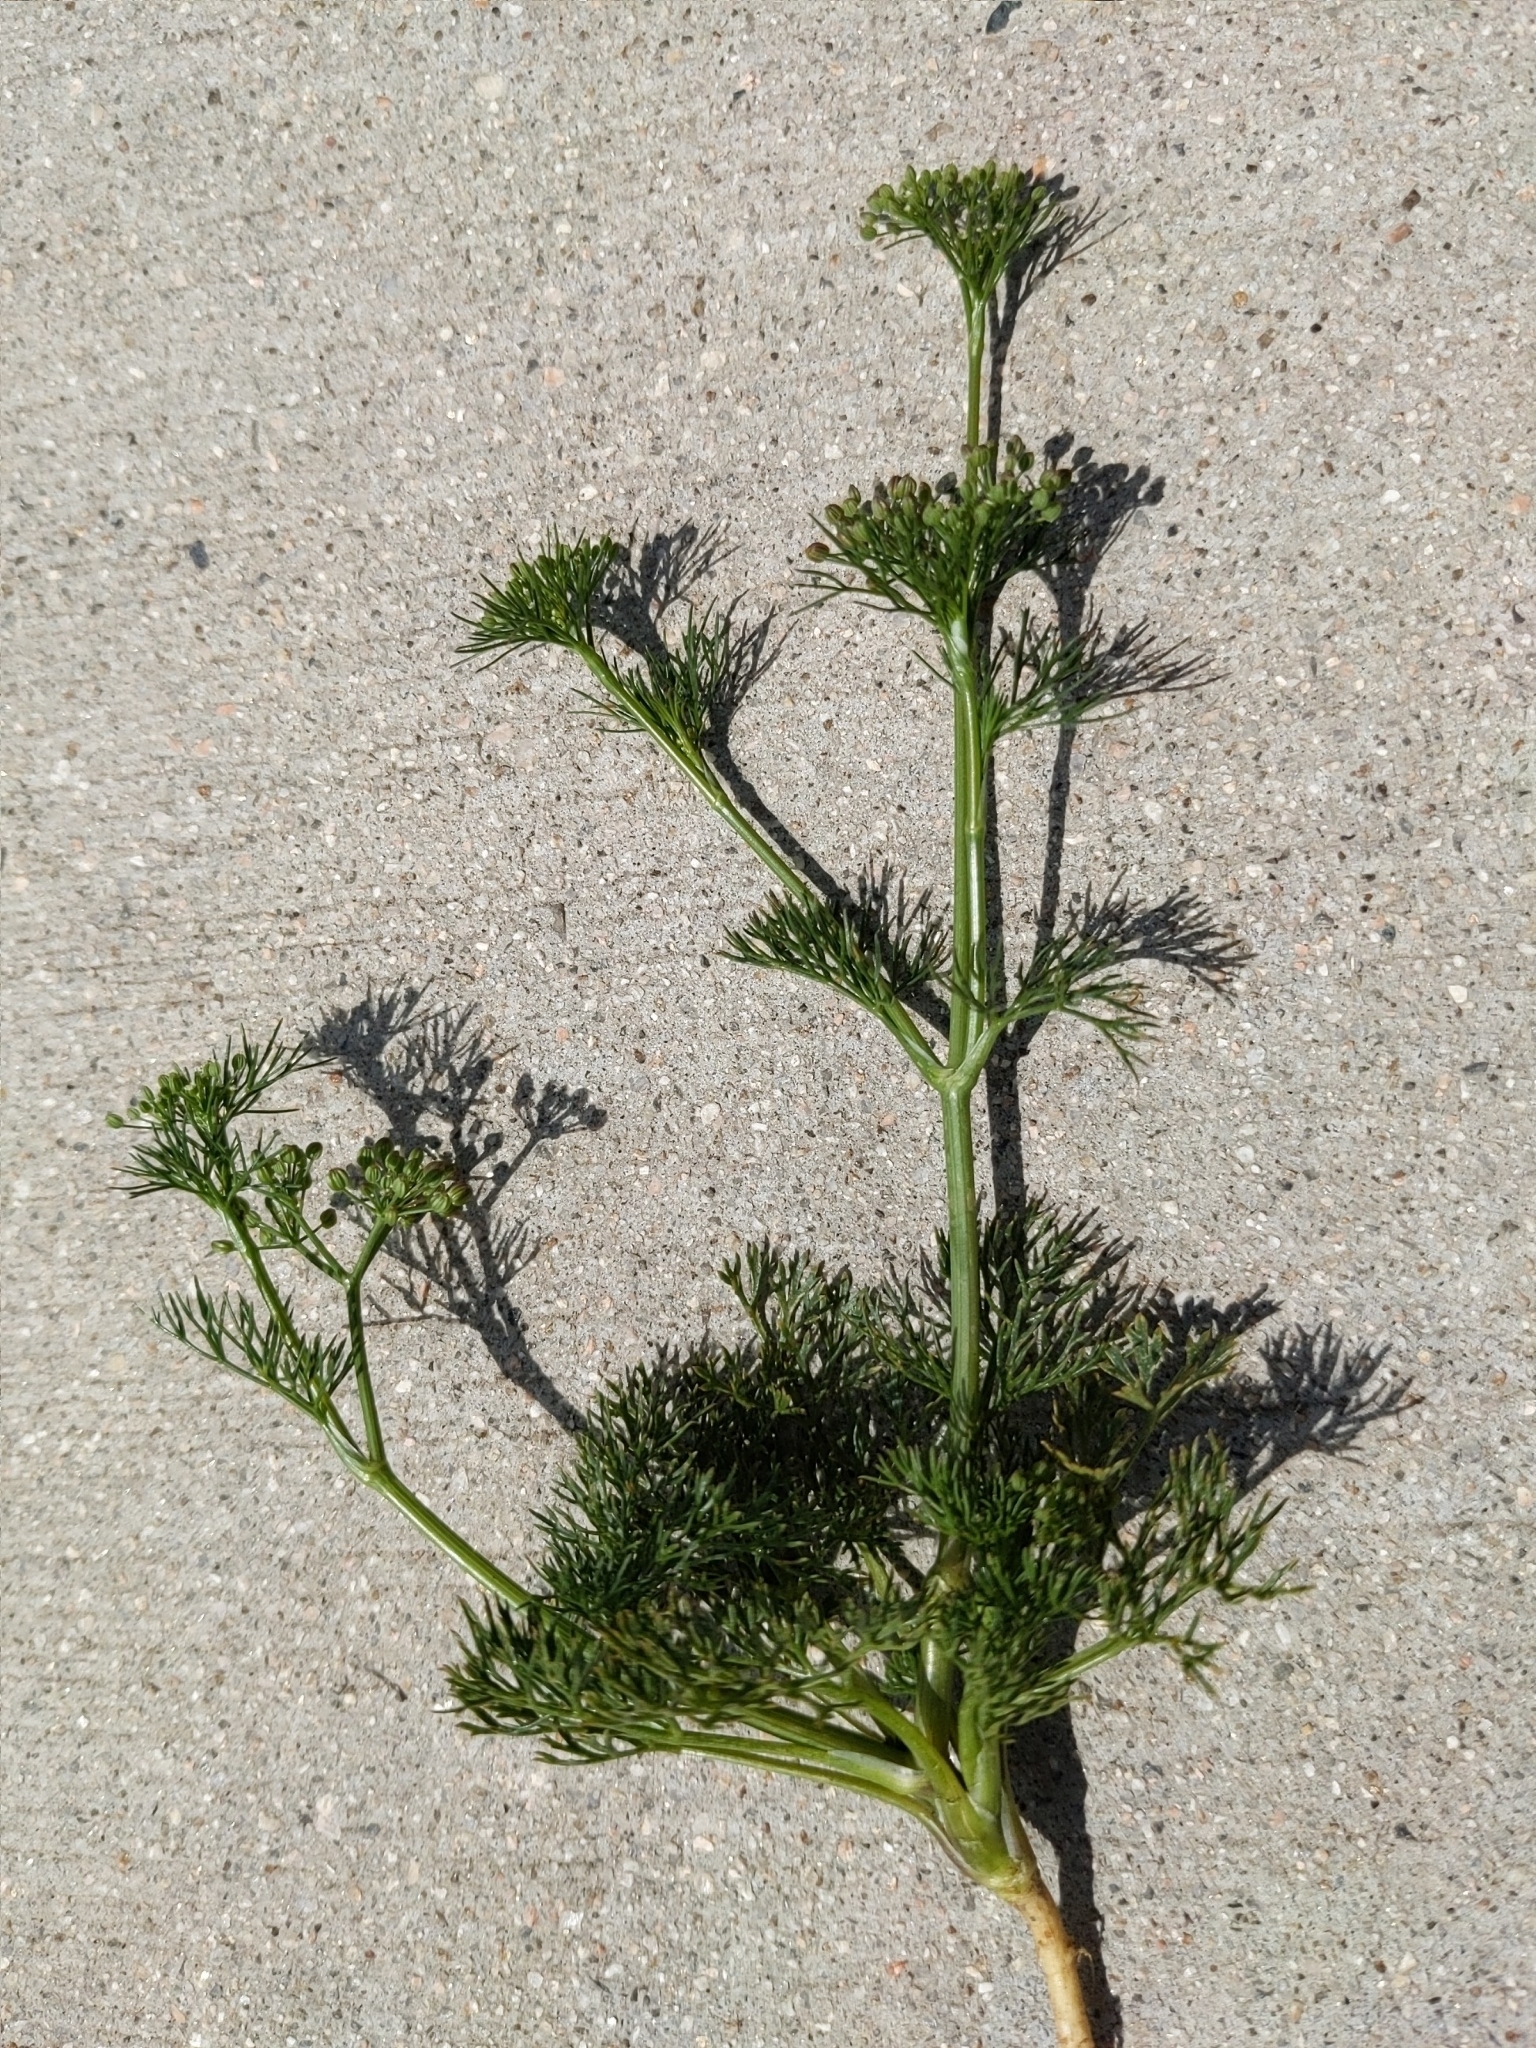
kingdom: Plantae
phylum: Tracheophyta
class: Magnoliopsida
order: Apiales
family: Apiaceae
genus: Cyclospermum
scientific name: Cyclospermum leptophyllum
